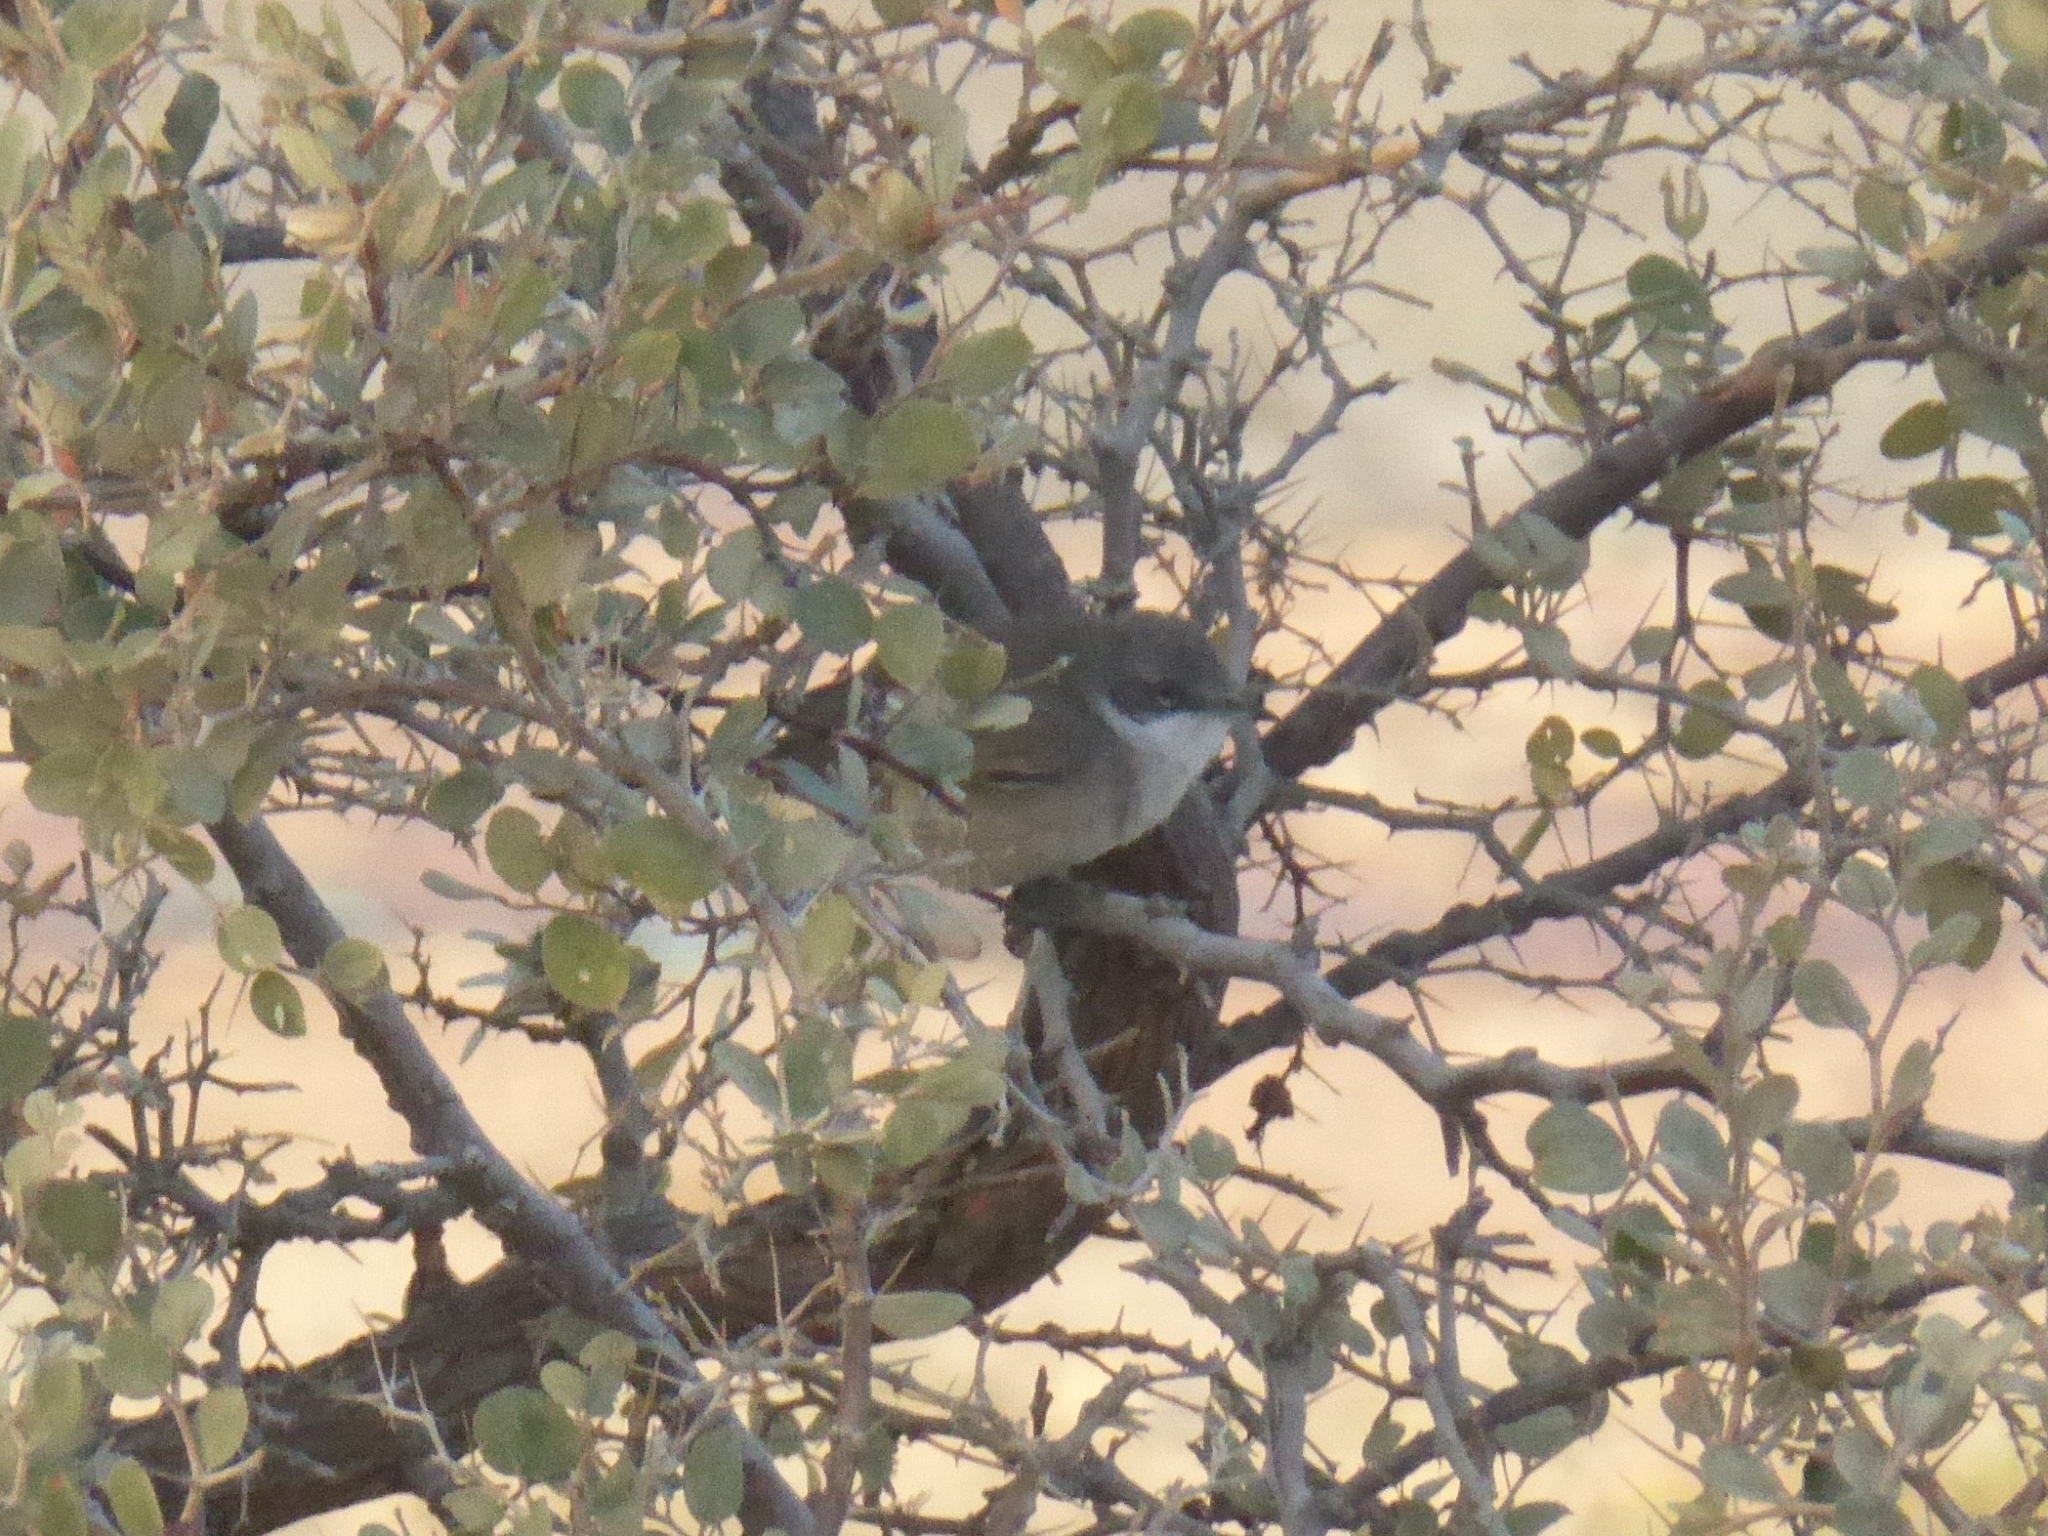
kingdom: Animalia
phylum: Chordata
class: Aves
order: Passeriformes
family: Sylviidae
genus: Sylvia
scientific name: Sylvia curruca
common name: Lesser whitethroat
